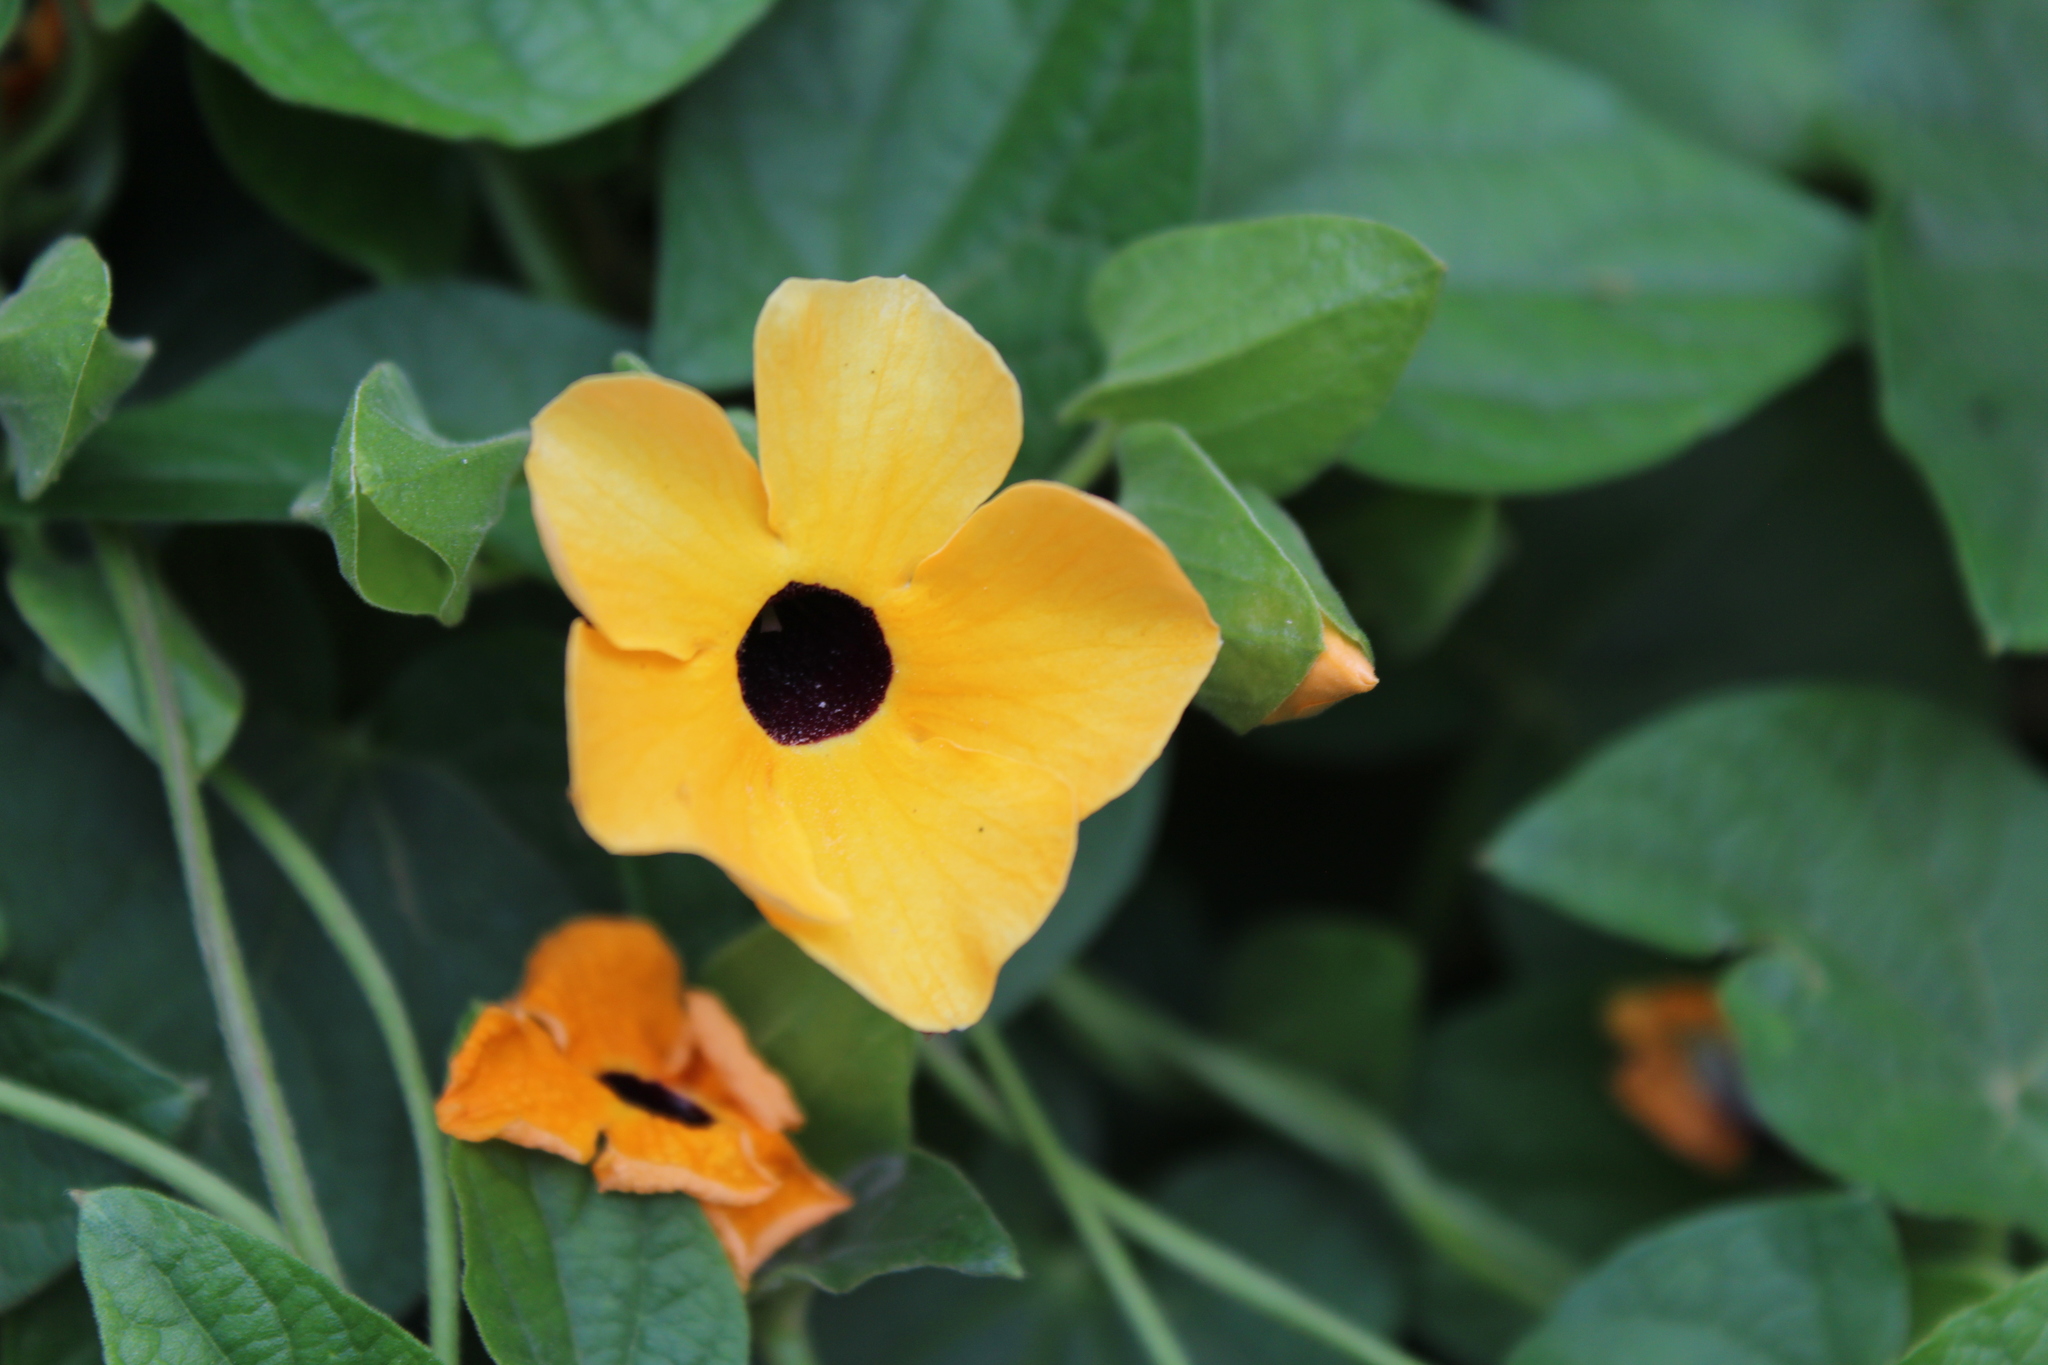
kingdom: Plantae
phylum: Tracheophyta
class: Magnoliopsida
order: Lamiales
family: Acanthaceae
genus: Thunbergia
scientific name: Thunbergia alata
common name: Blackeyed susan vine
